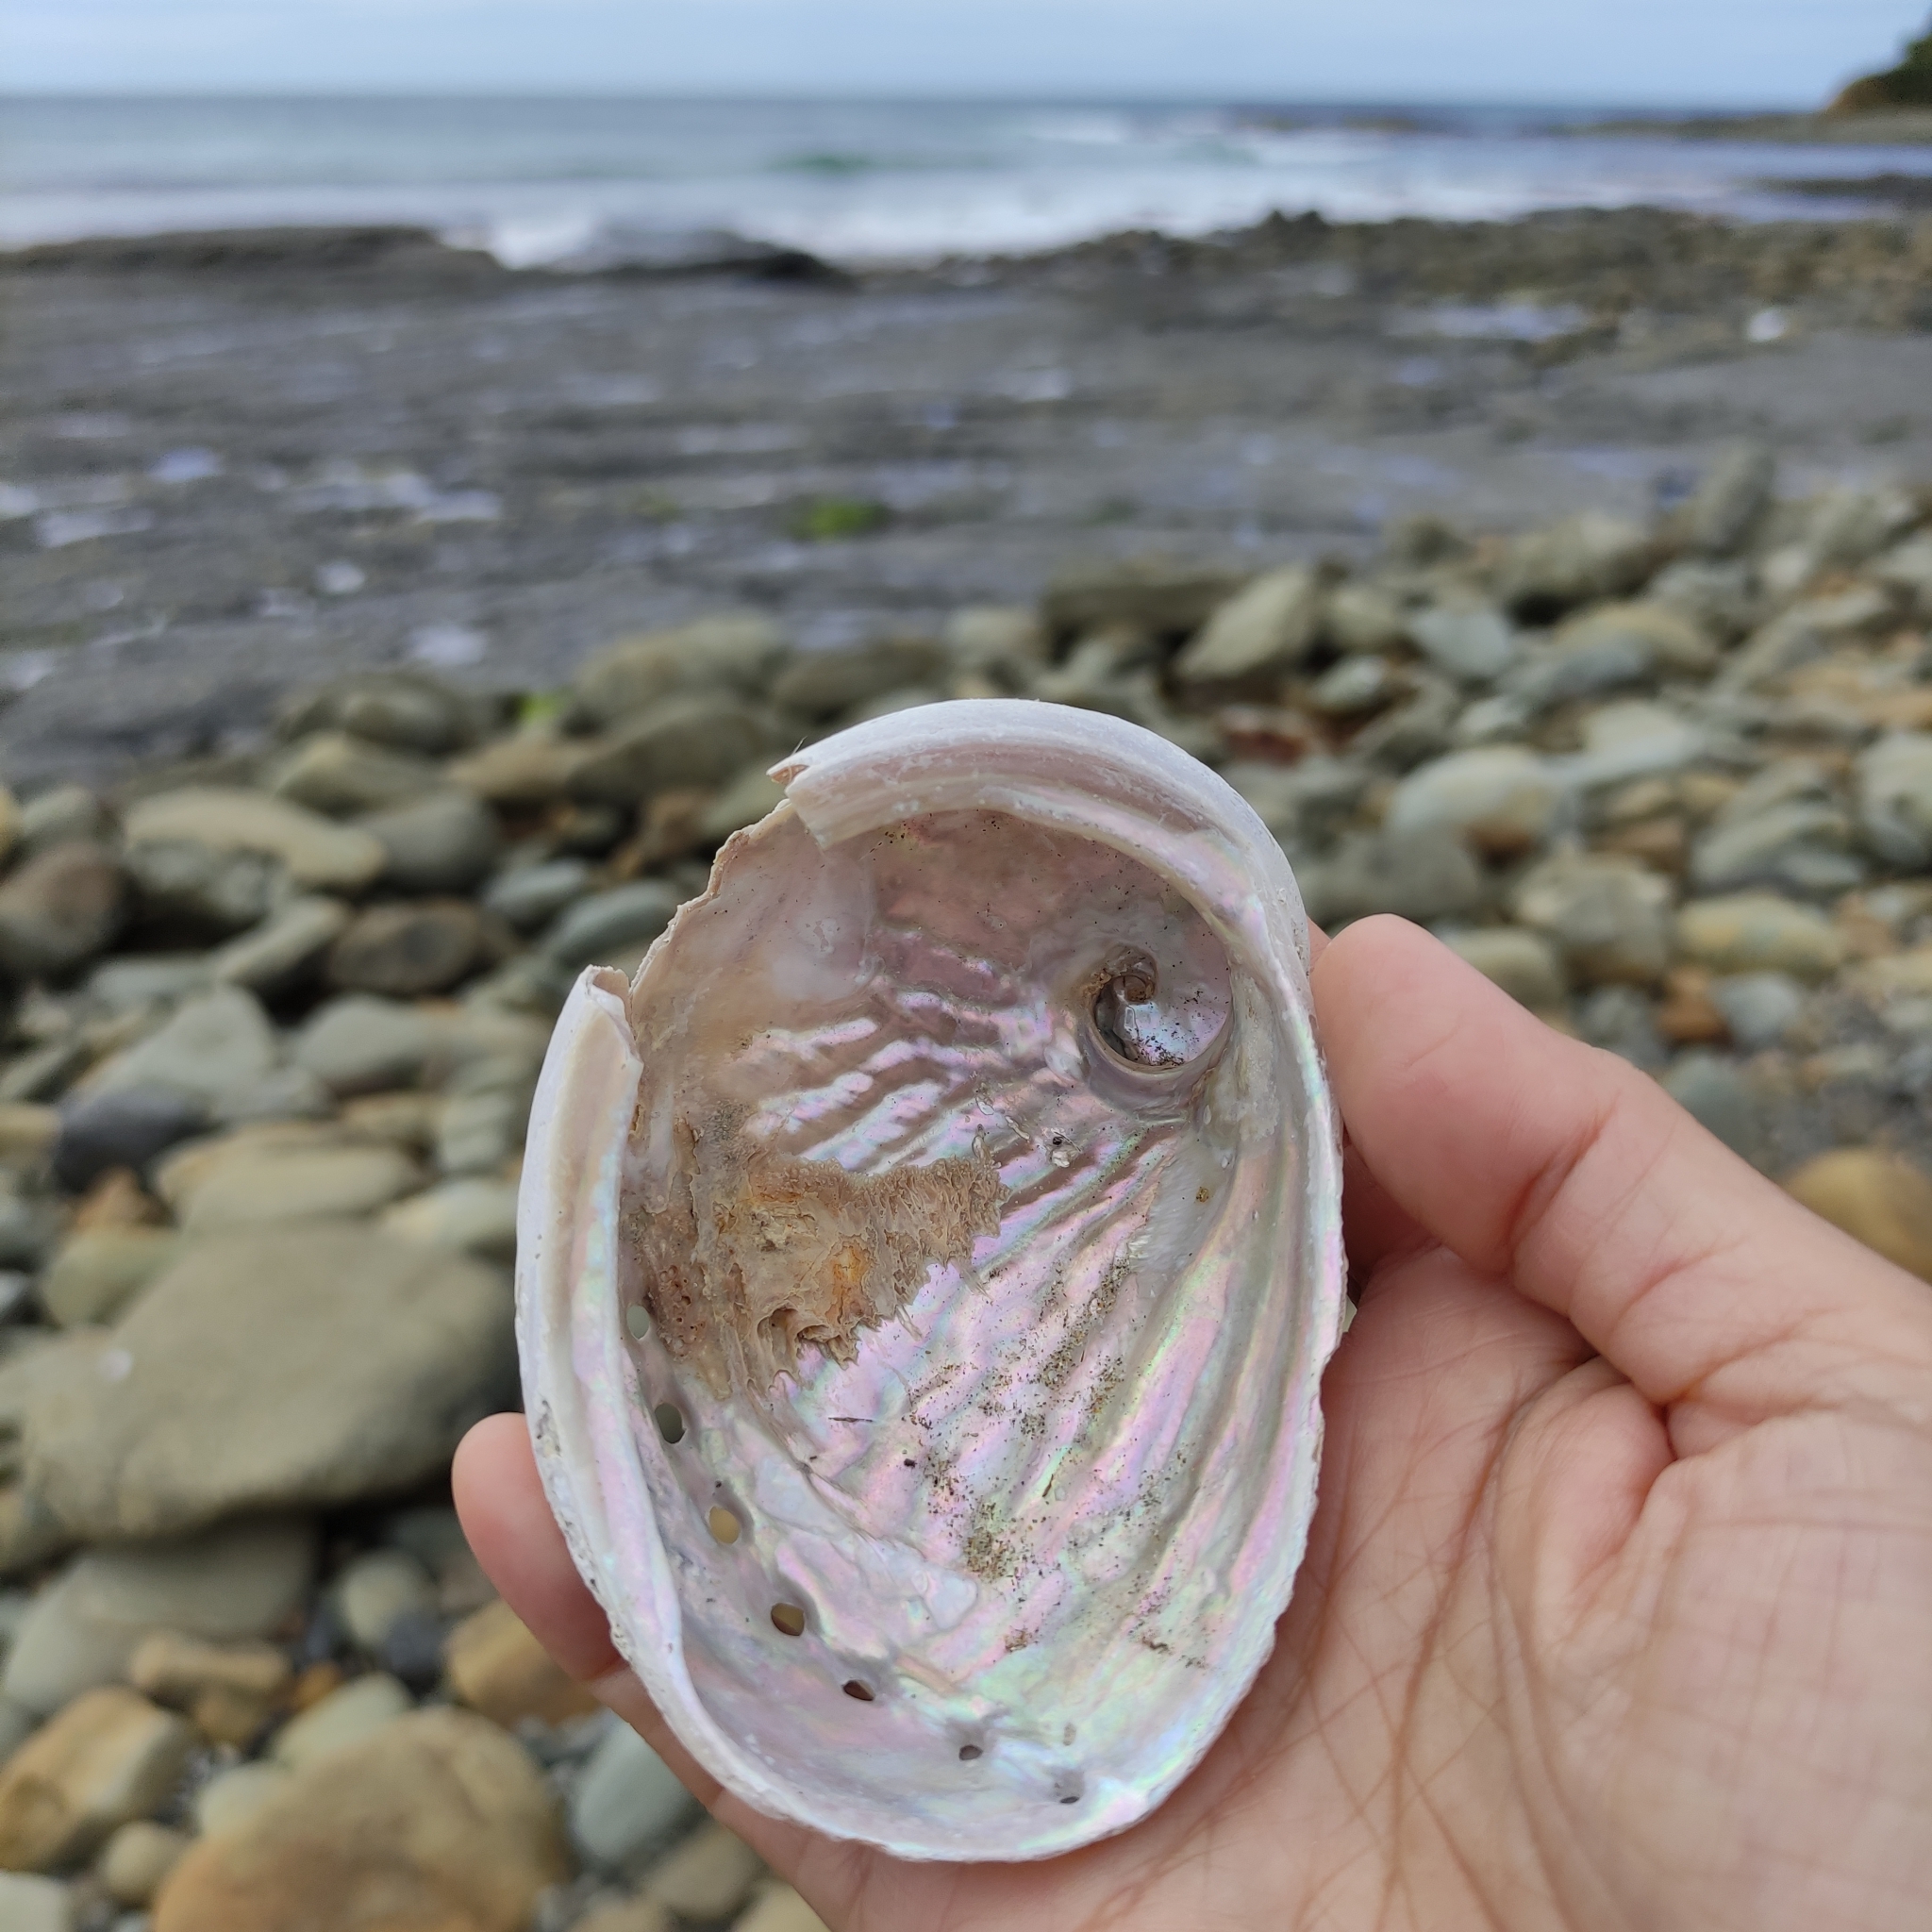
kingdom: Animalia
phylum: Mollusca
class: Gastropoda
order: Lepetellida
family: Haliotidae
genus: Haliotis
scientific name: Haliotis australis
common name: Silver abalone
